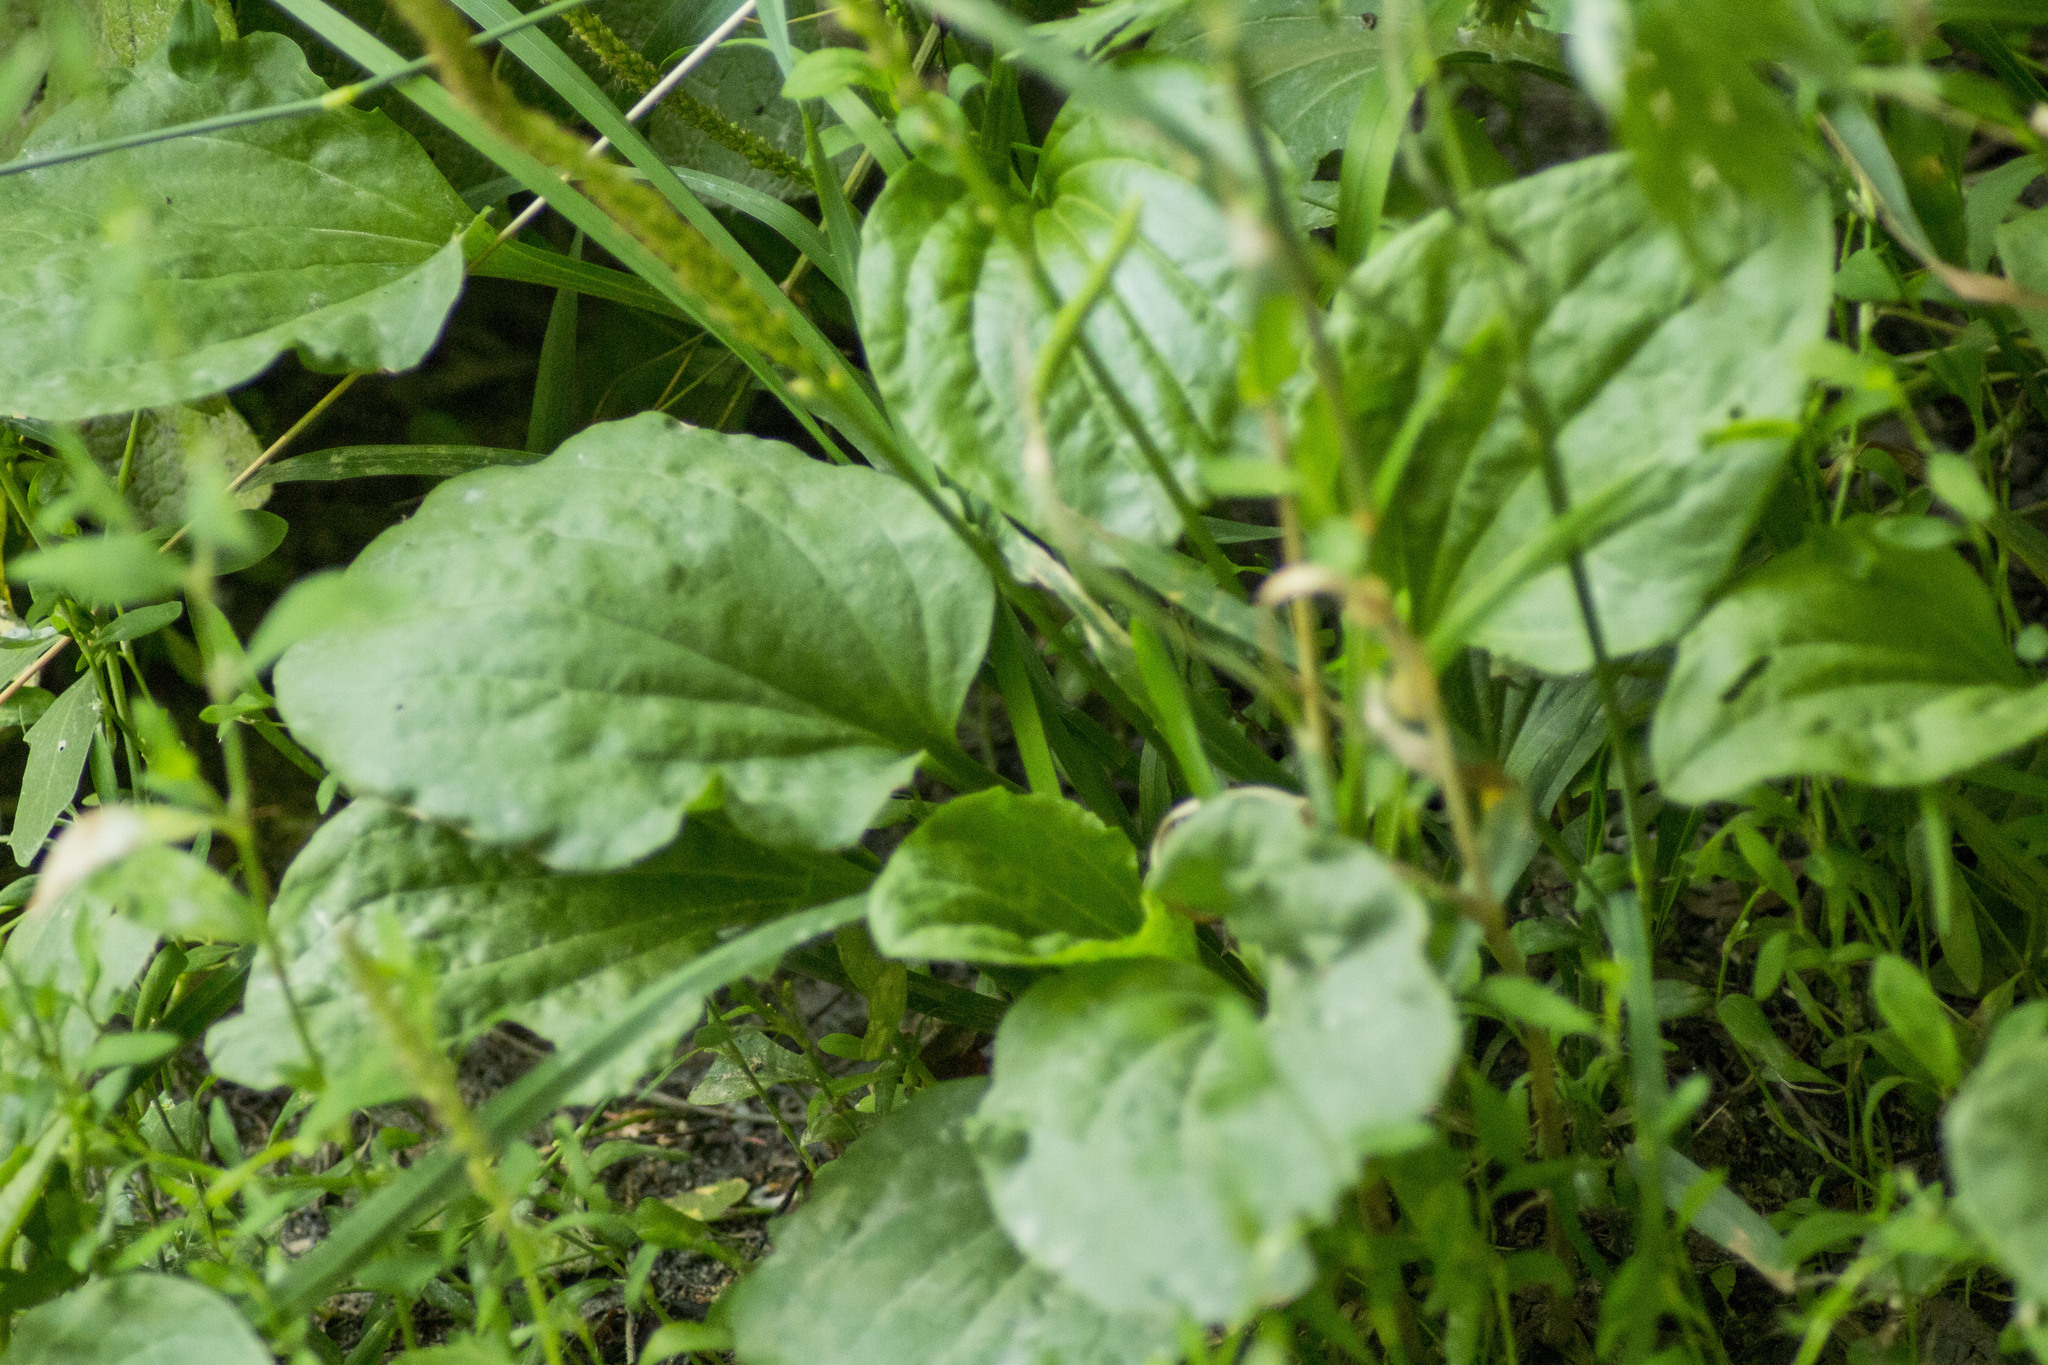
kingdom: Plantae
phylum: Tracheophyta
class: Magnoliopsida
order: Lamiales
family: Plantaginaceae
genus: Plantago
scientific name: Plantago major
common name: Common plantain
